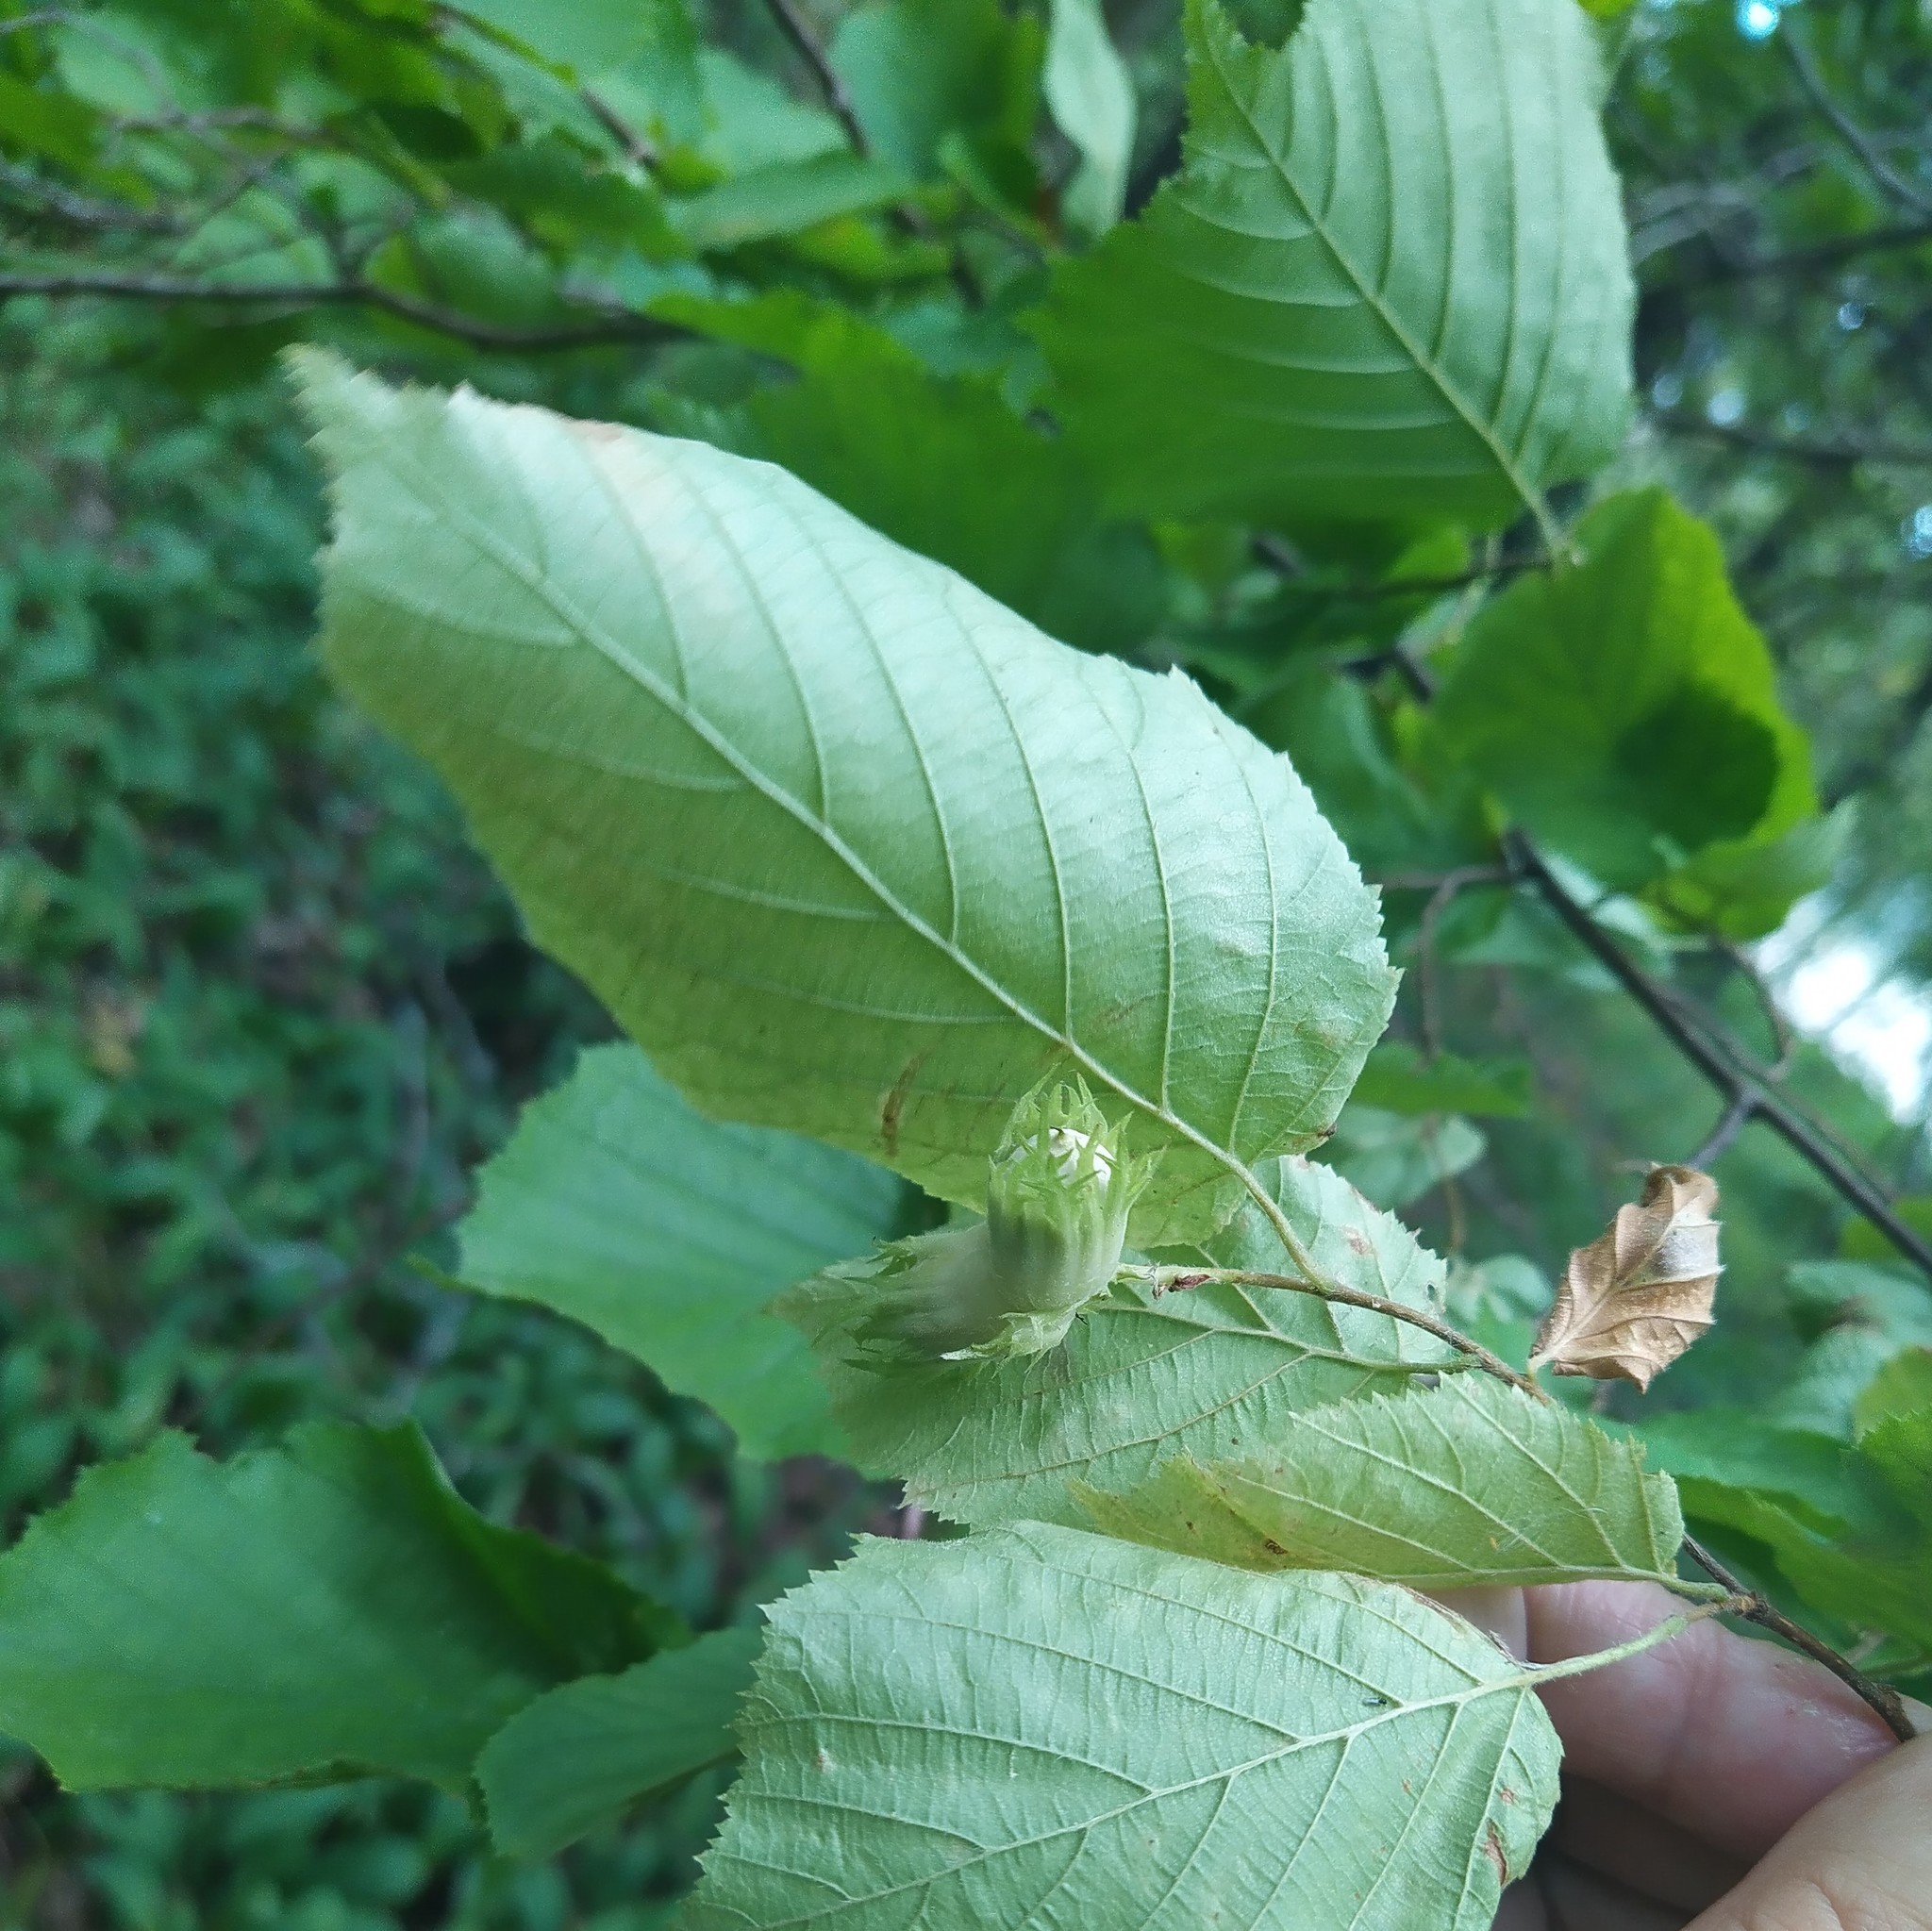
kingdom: Plantae
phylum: Tracheophyta
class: Magnoliopsida
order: Fagales
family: Betulaceae
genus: Corylus
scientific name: Corylus avellana
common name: European hazel
